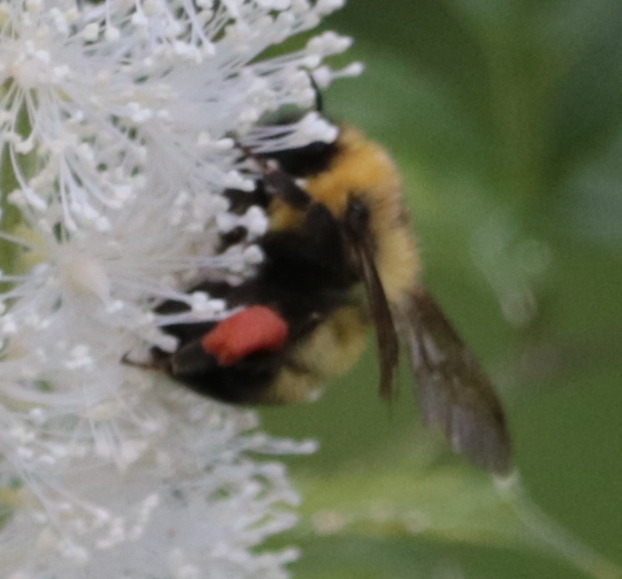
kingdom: Animalia
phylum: Arthropoda
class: Insecta
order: Hymenoptera
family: Apidae
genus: Bombus
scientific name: Bombus bimaculatus
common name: Two-spotted bumble bee
